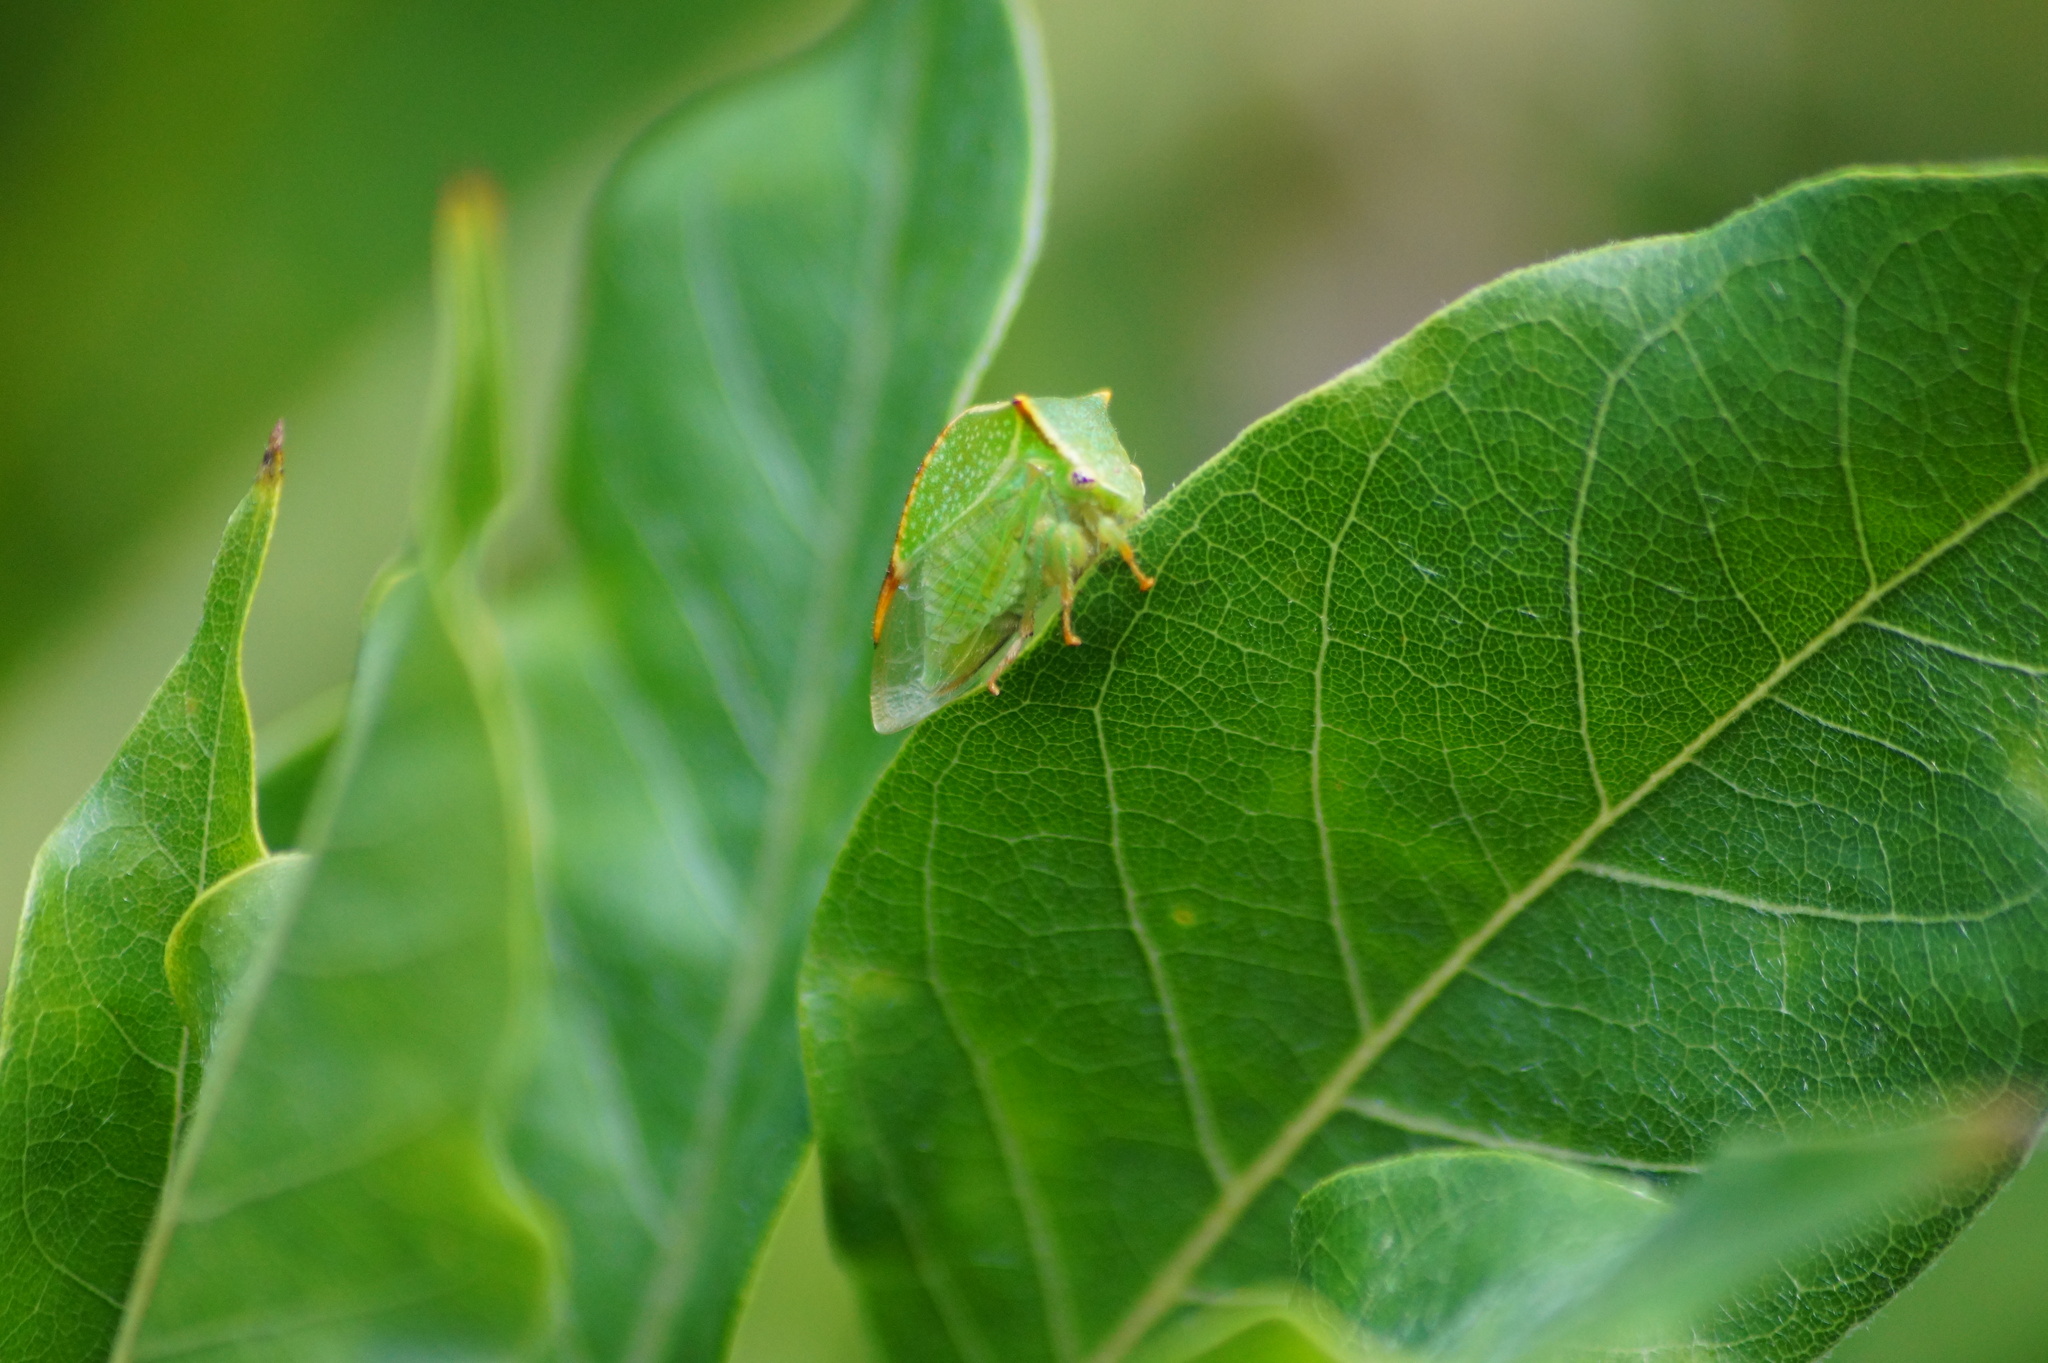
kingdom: Animalia
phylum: Arthropoda
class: Insecta
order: Hemiptera
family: Membracidae
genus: Stictocephala
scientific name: Stictocephala bisonia
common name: American buffalo treehopper
